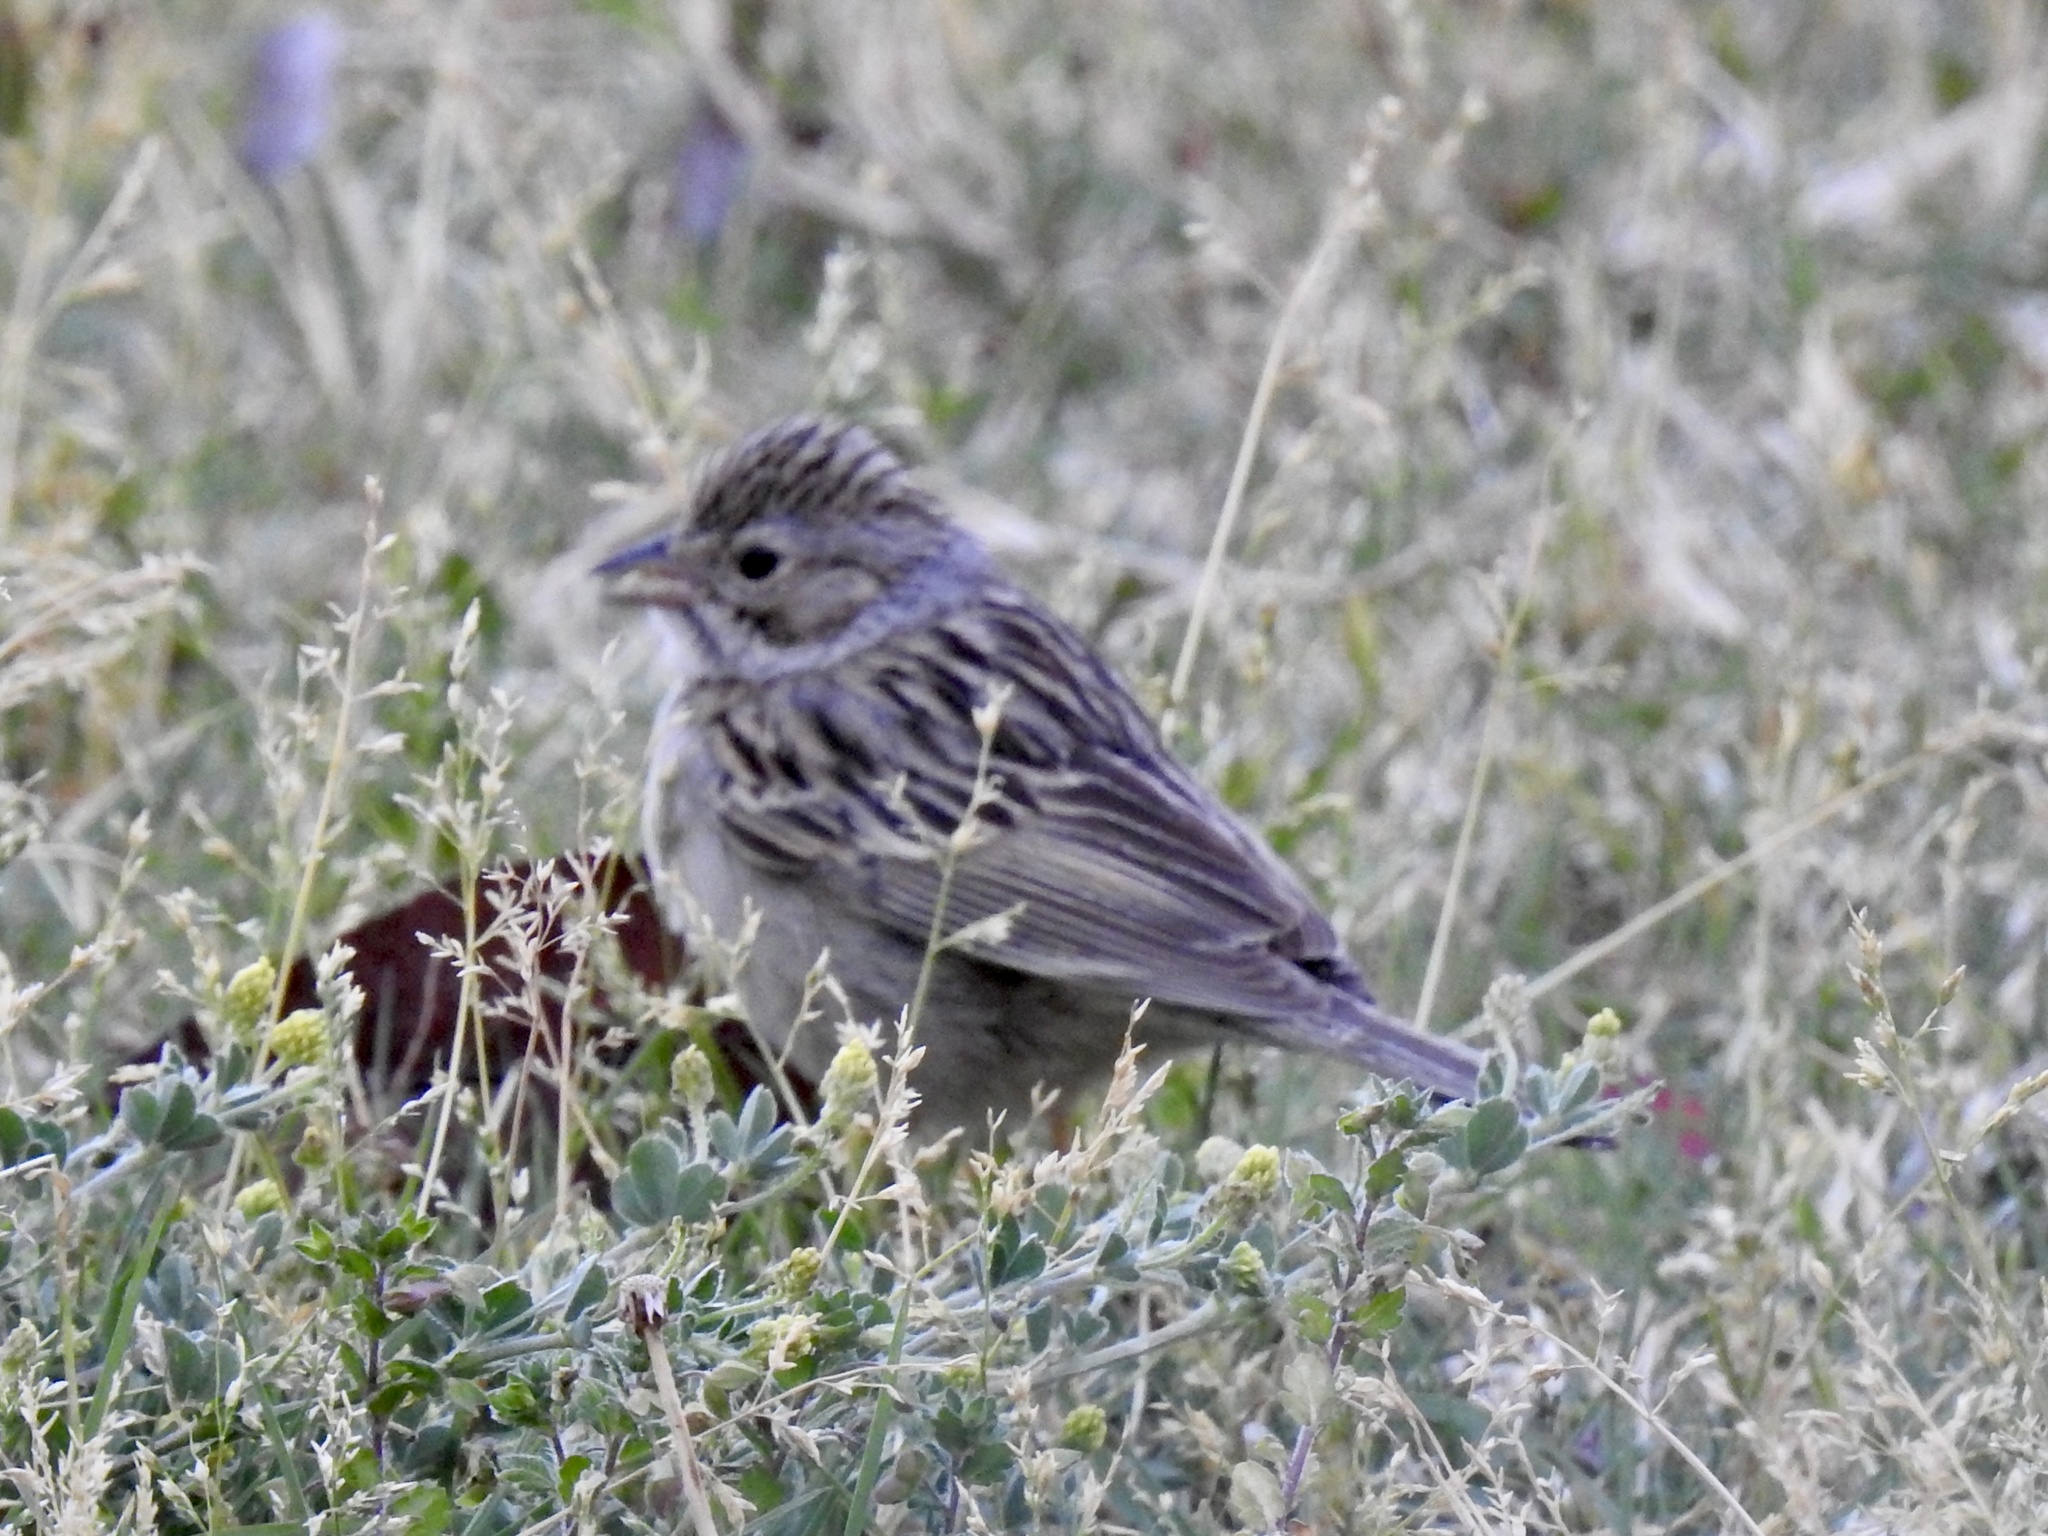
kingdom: Animalia
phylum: Chordata
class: Aves
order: Passeriformes
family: Passerellidae
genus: Spizella
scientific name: Spizella breweri
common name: Brewer's sparrow
